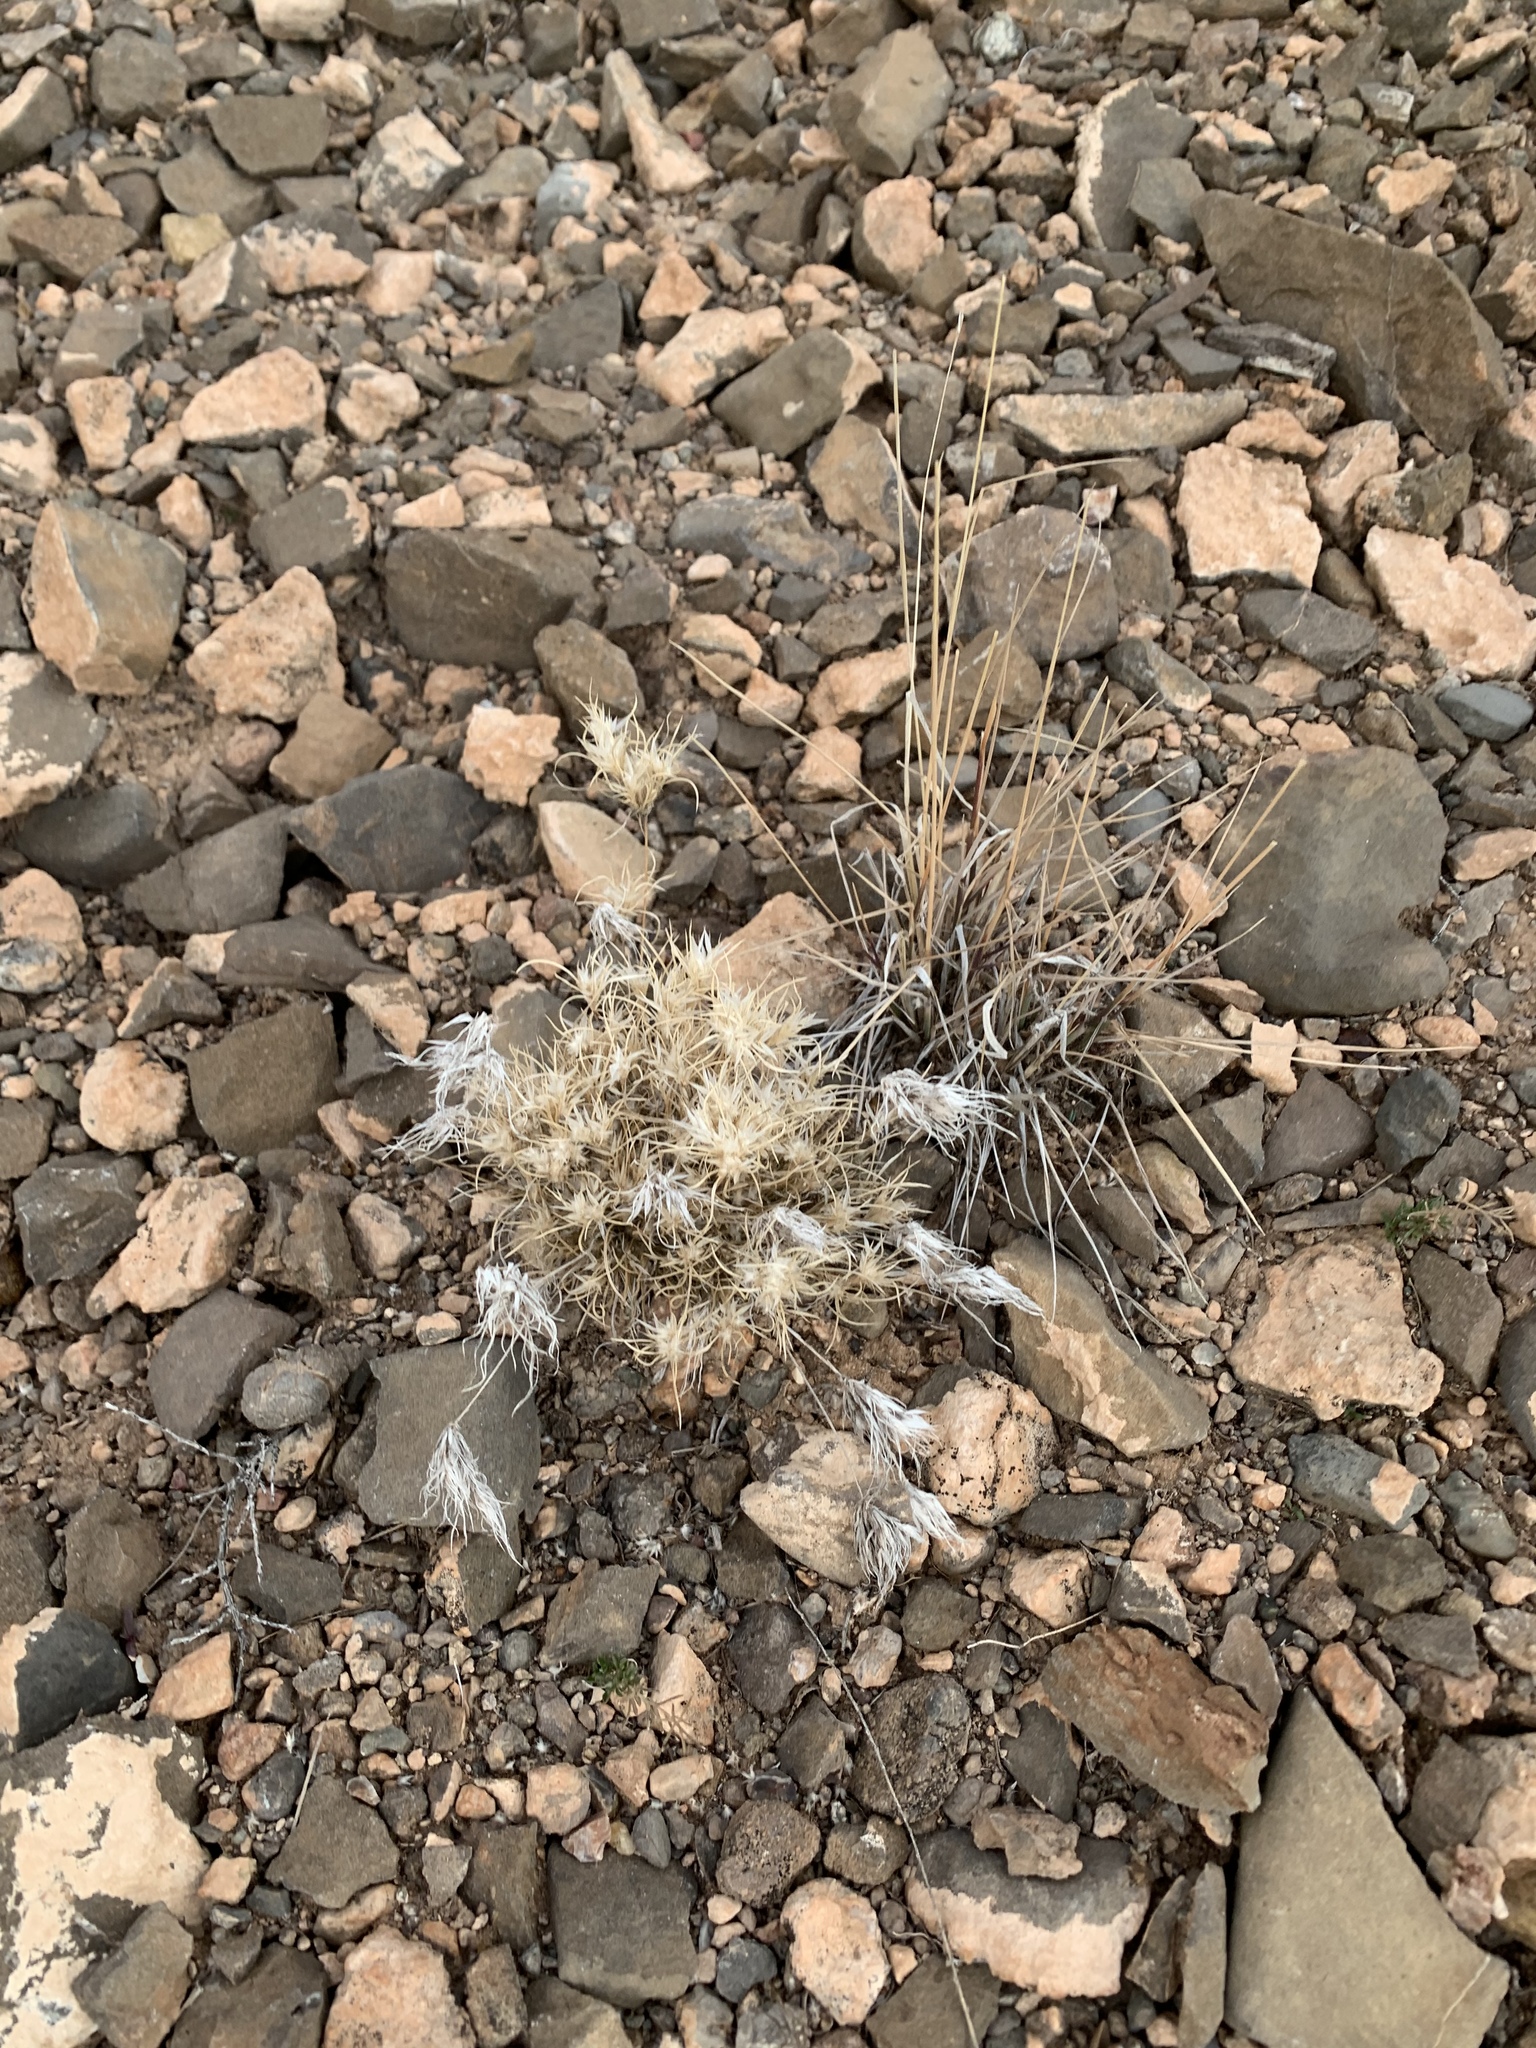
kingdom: Plantae
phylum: Tracheophyta
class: Liliopsida
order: Poales
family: Poaceae
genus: Dasyochloa
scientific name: Dasyochloa pulchella
